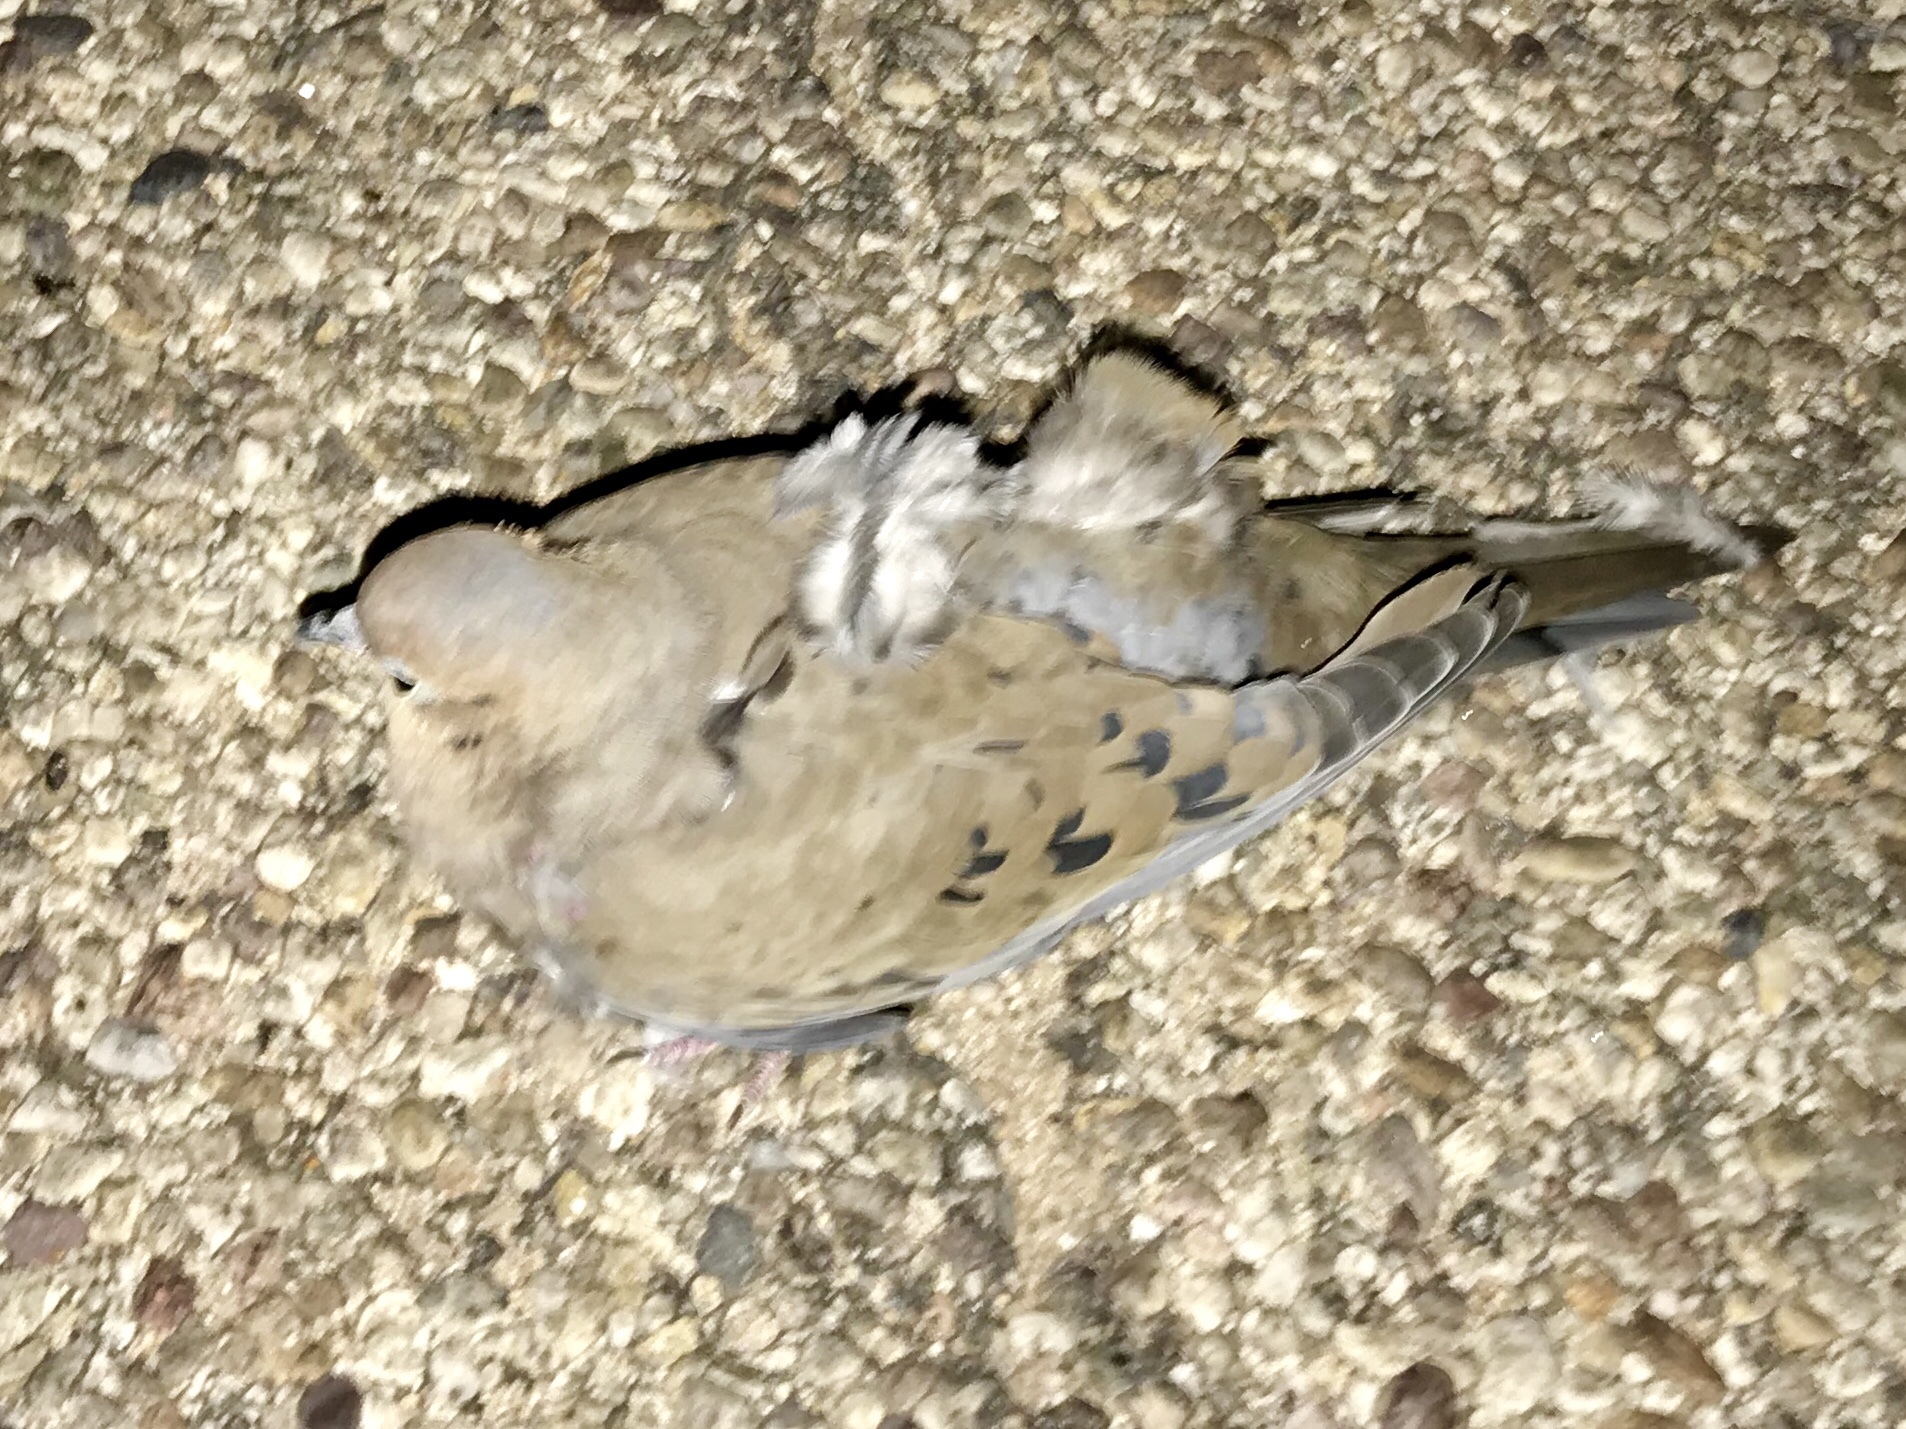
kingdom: Animalia
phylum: Chordata
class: Aves
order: Columbiformes
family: Columbidae
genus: Zenaida
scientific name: Zenaida macroura
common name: Mourning dove
